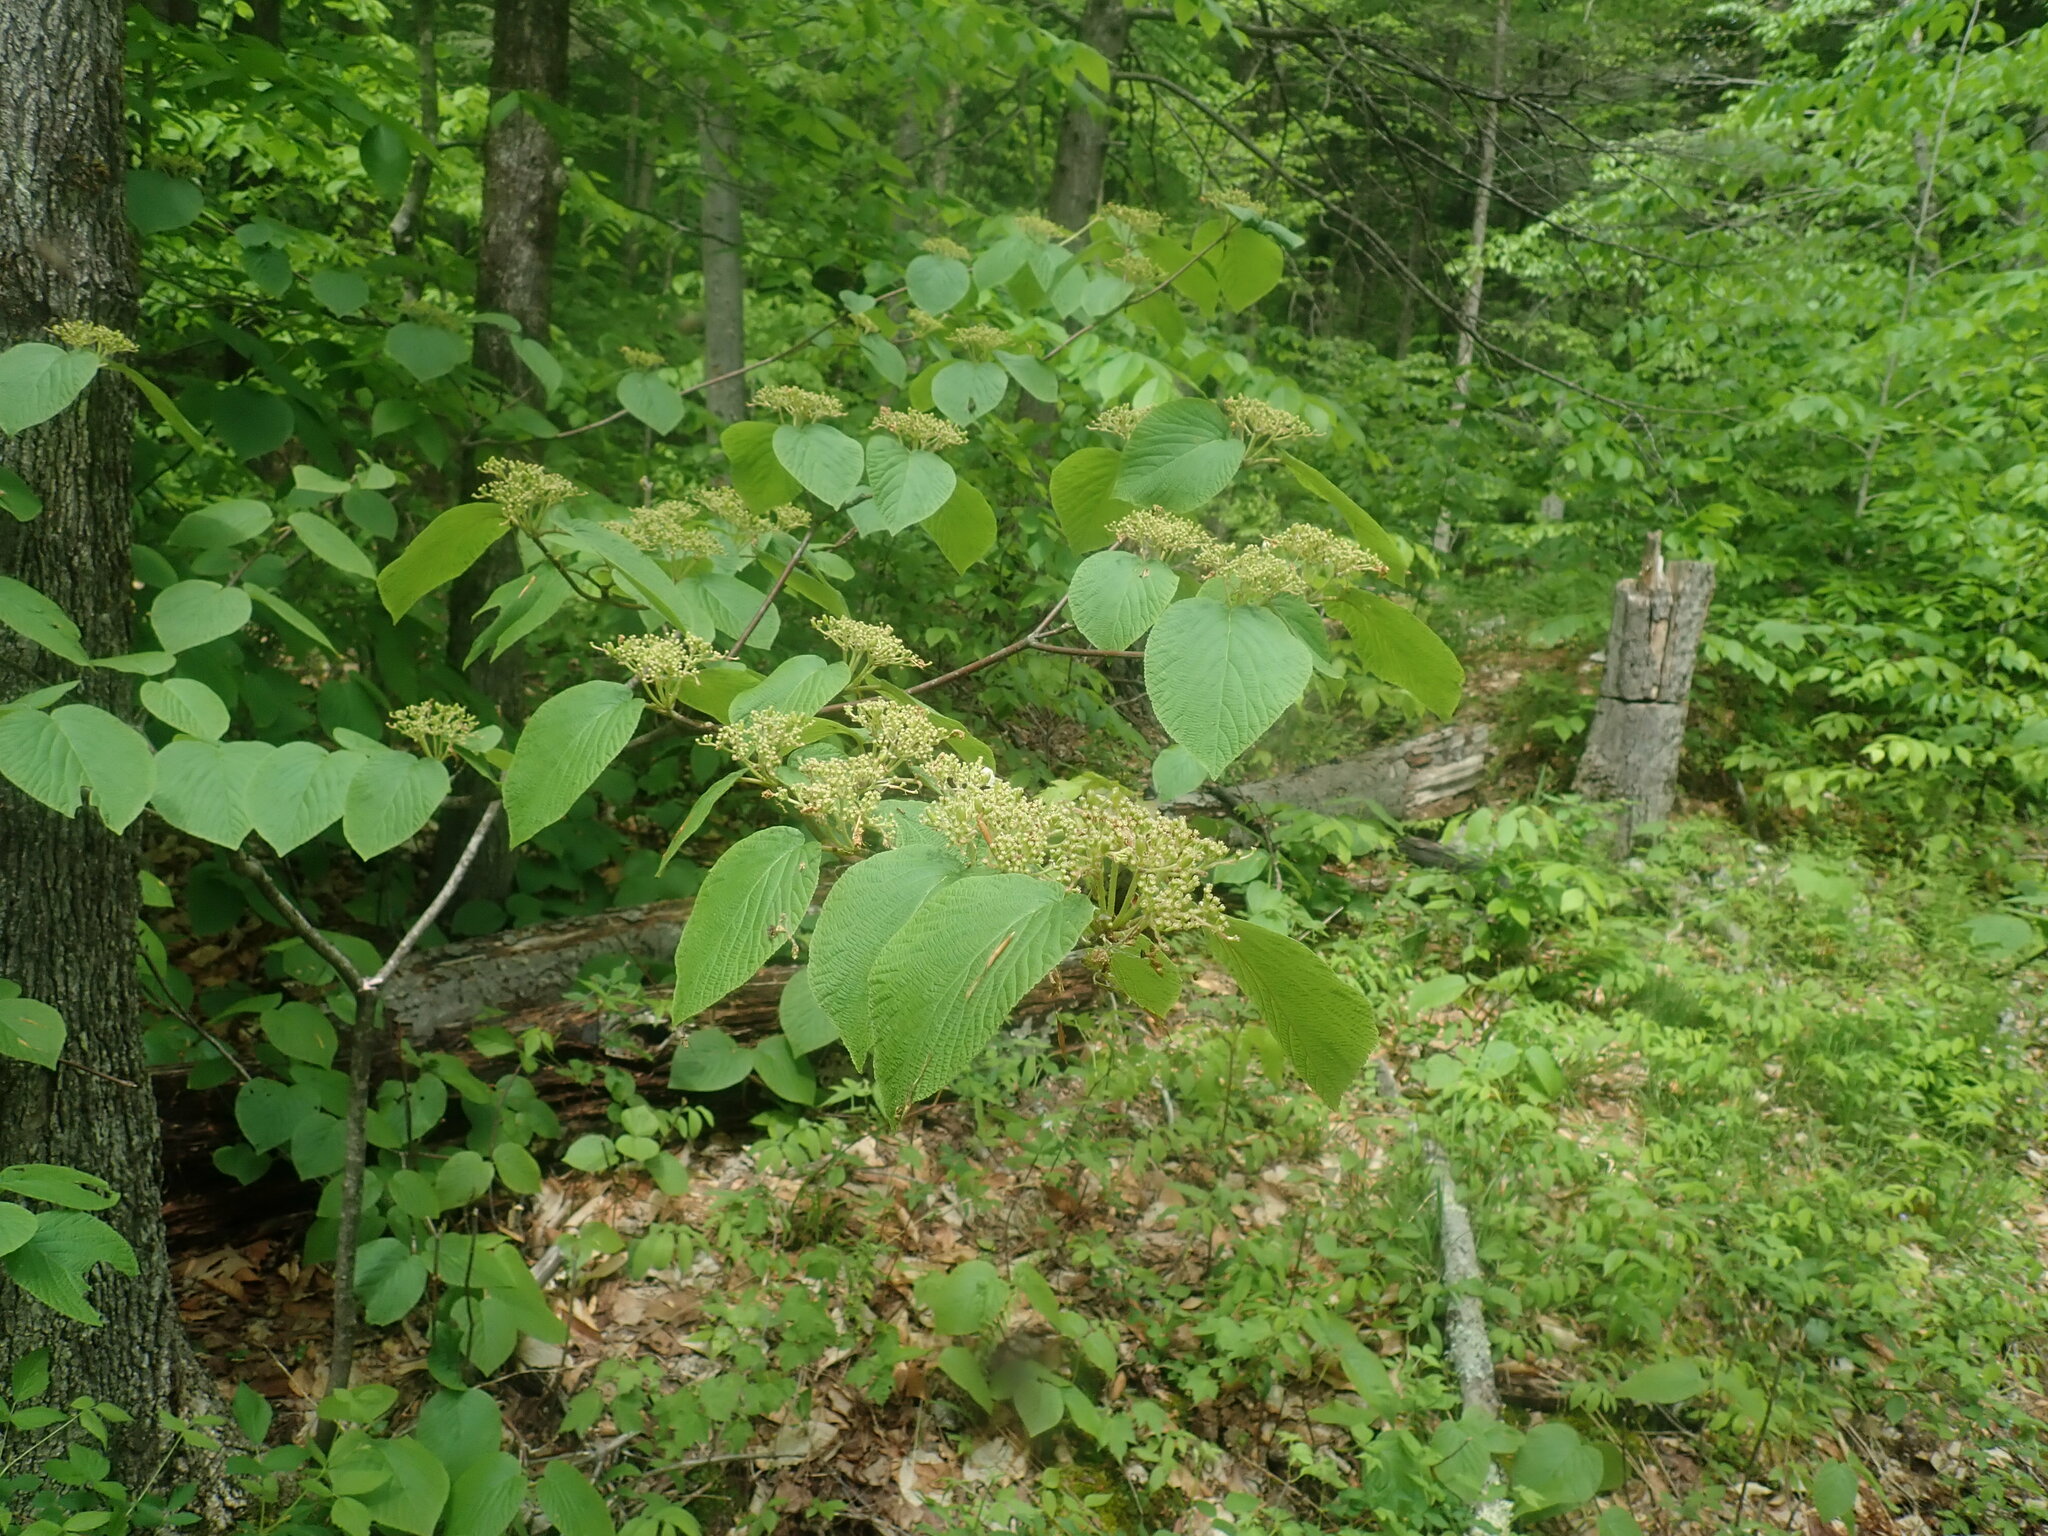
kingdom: Plantae
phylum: Tracheophyta
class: Magnoliopsida
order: Dipsacales
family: Viburnaceae
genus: Viburnum
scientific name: Viburnum lantanoides
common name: Hobblebush
